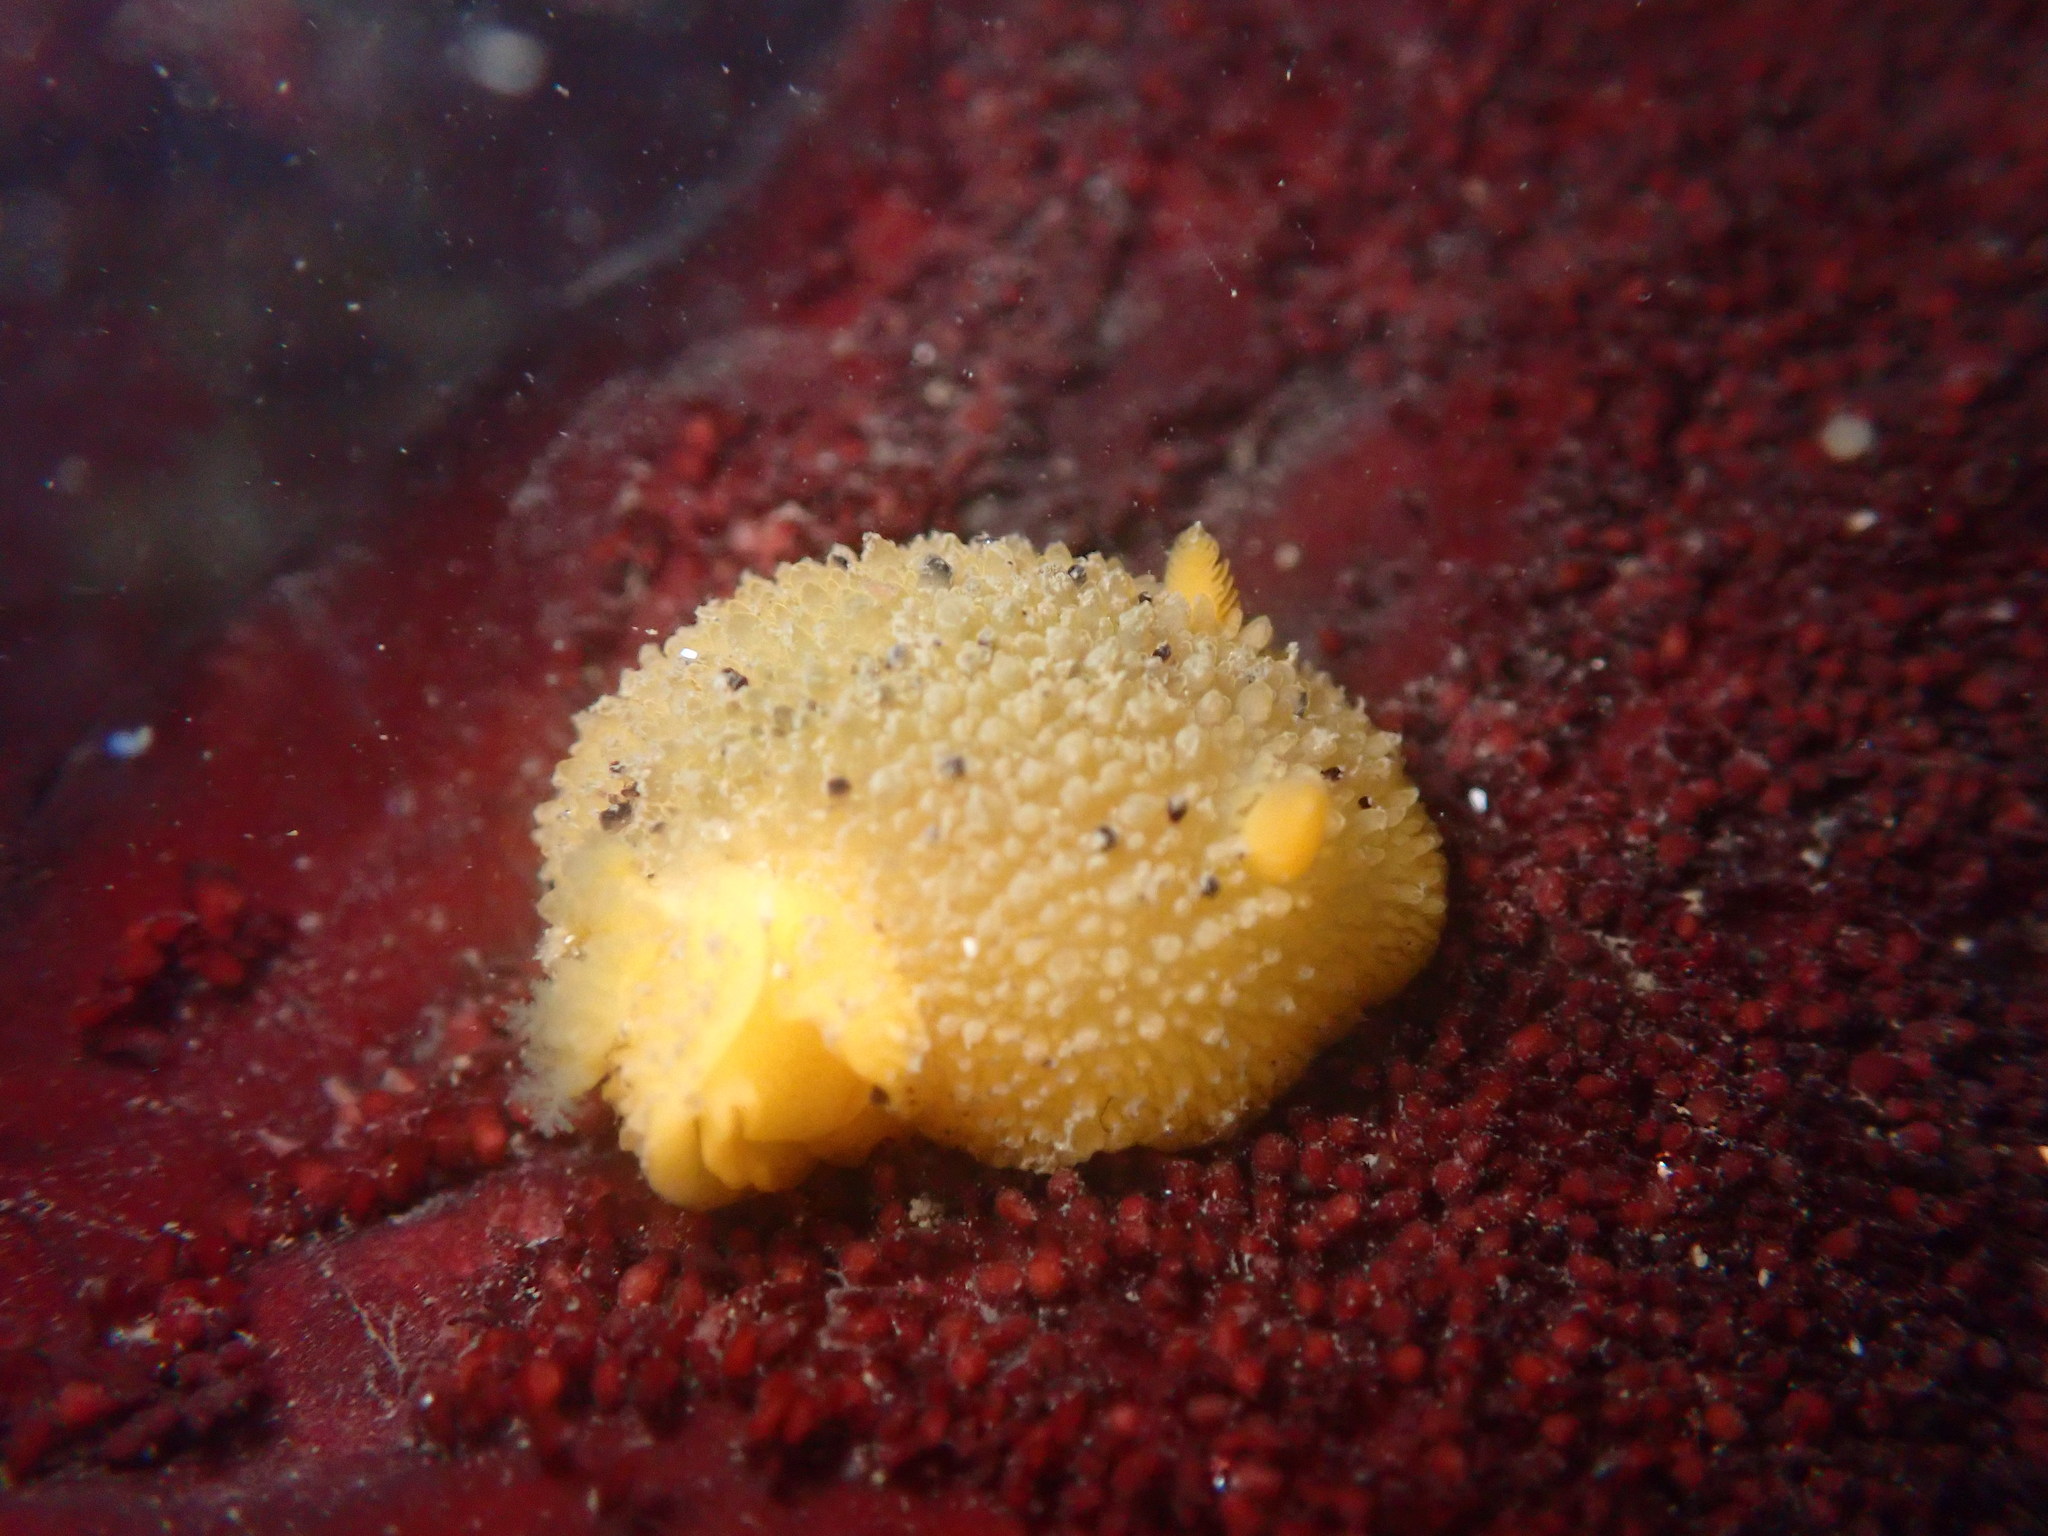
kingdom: Animalia
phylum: Mollusca
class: Gastropoda
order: Nudibranchia
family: Dorididae
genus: Doris
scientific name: Doris montereyensis
